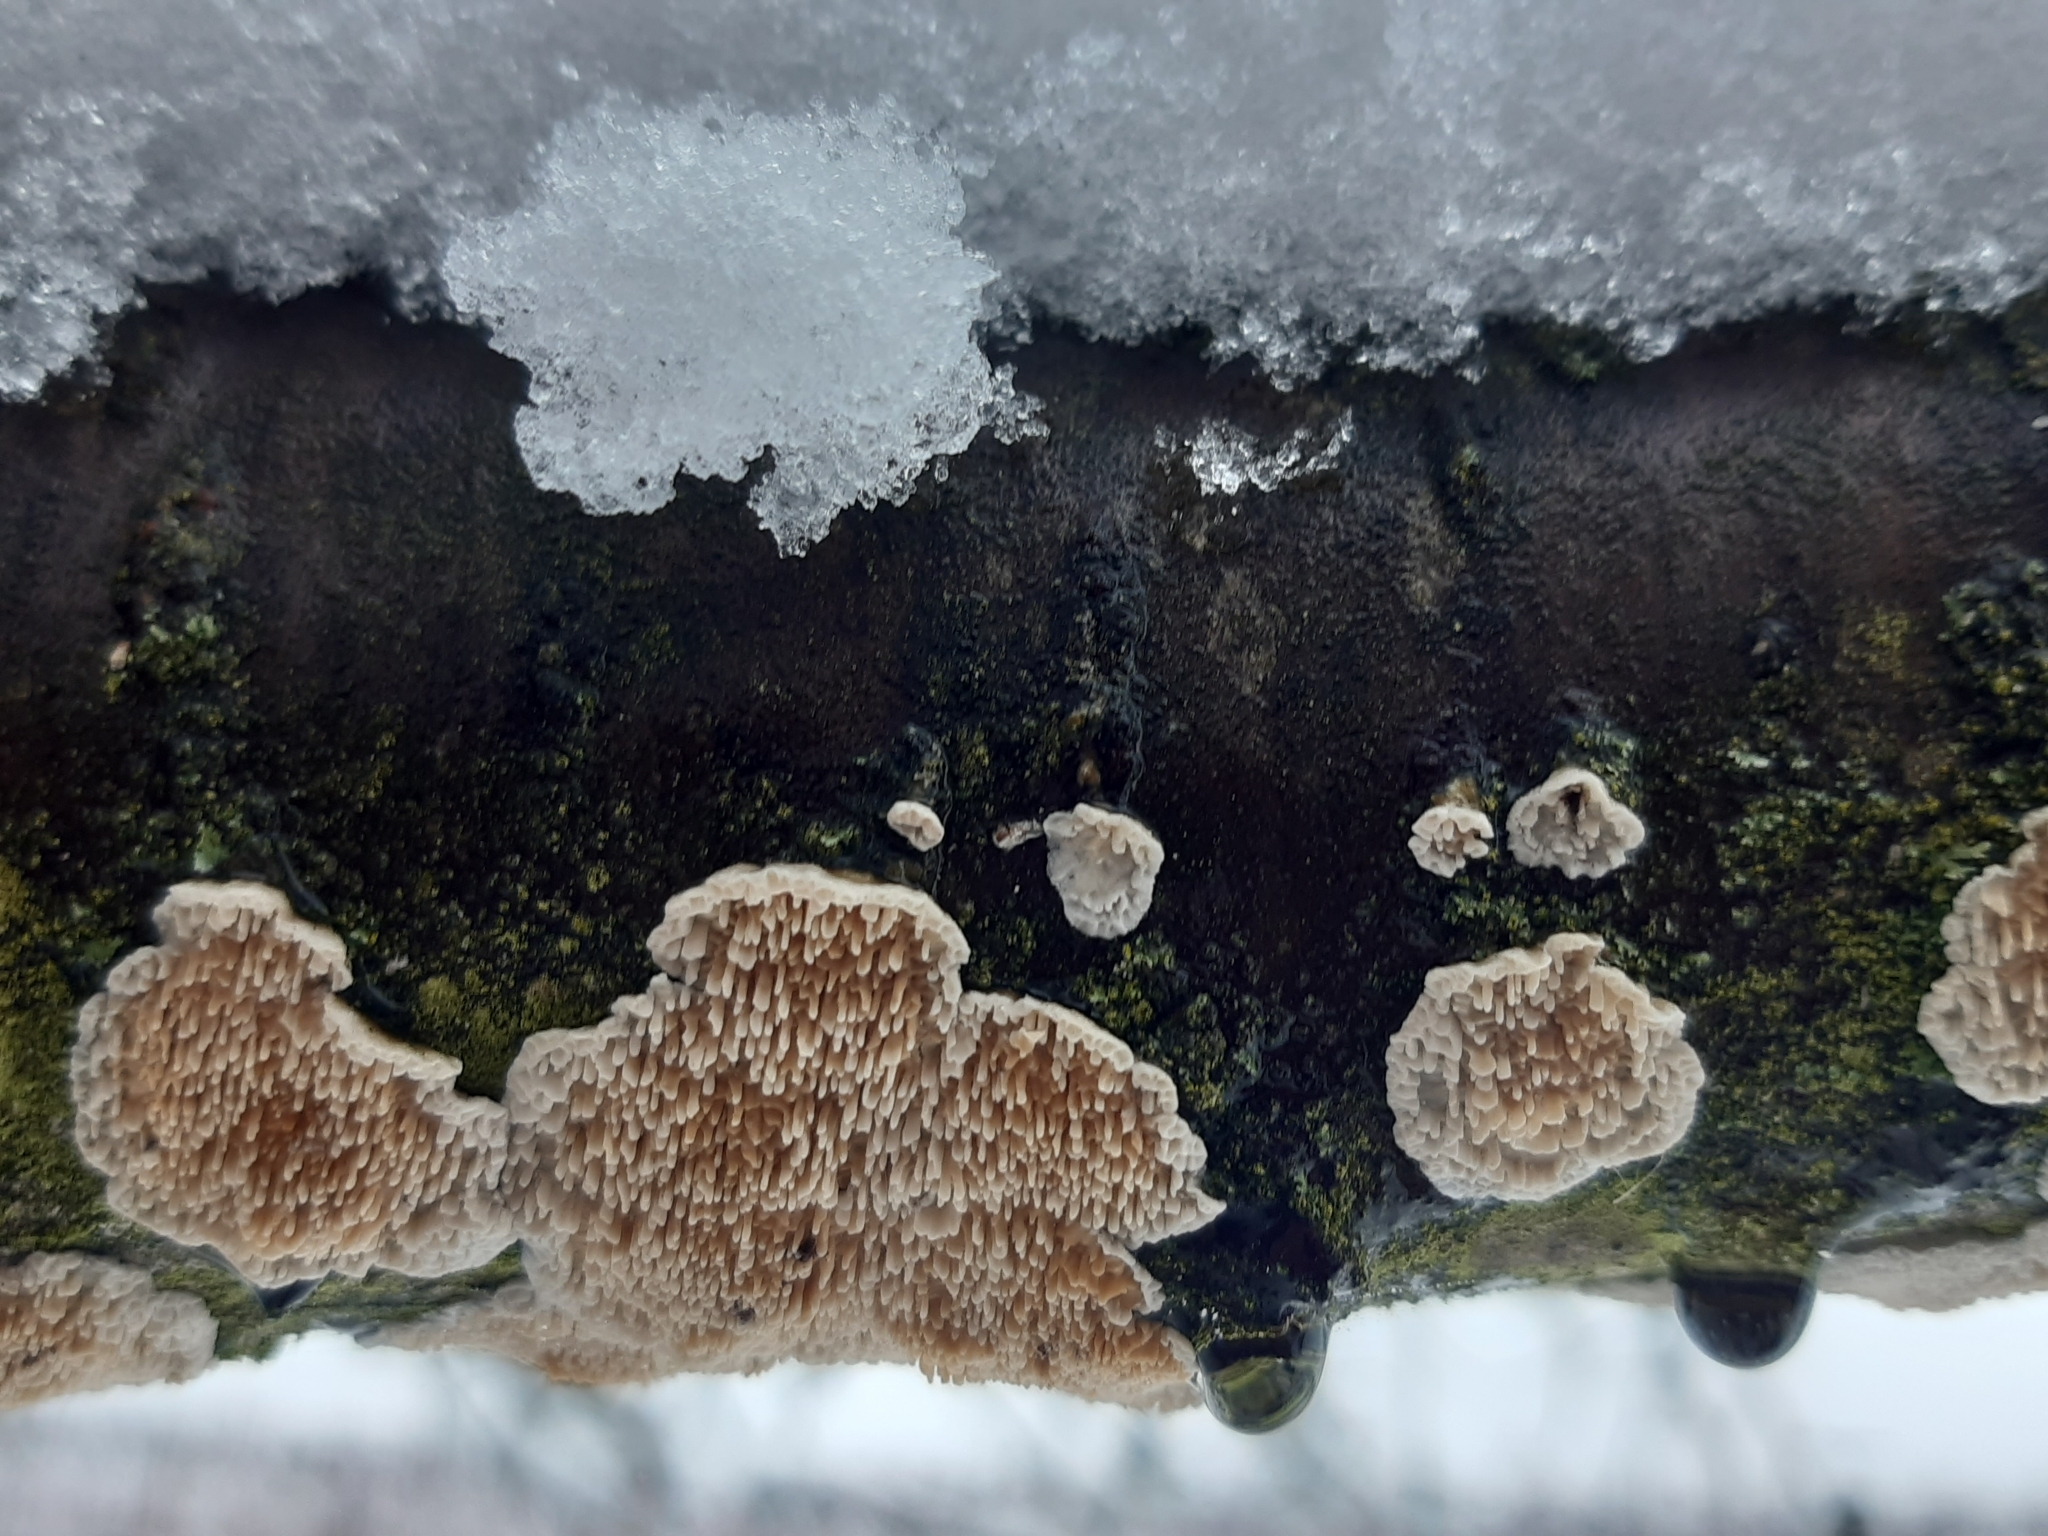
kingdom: Fungi
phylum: Basidiomycota
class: Agaricomycetes
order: Hymenochaetales
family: Schizoporaceae
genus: Xylodon
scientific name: Xylodon radula
